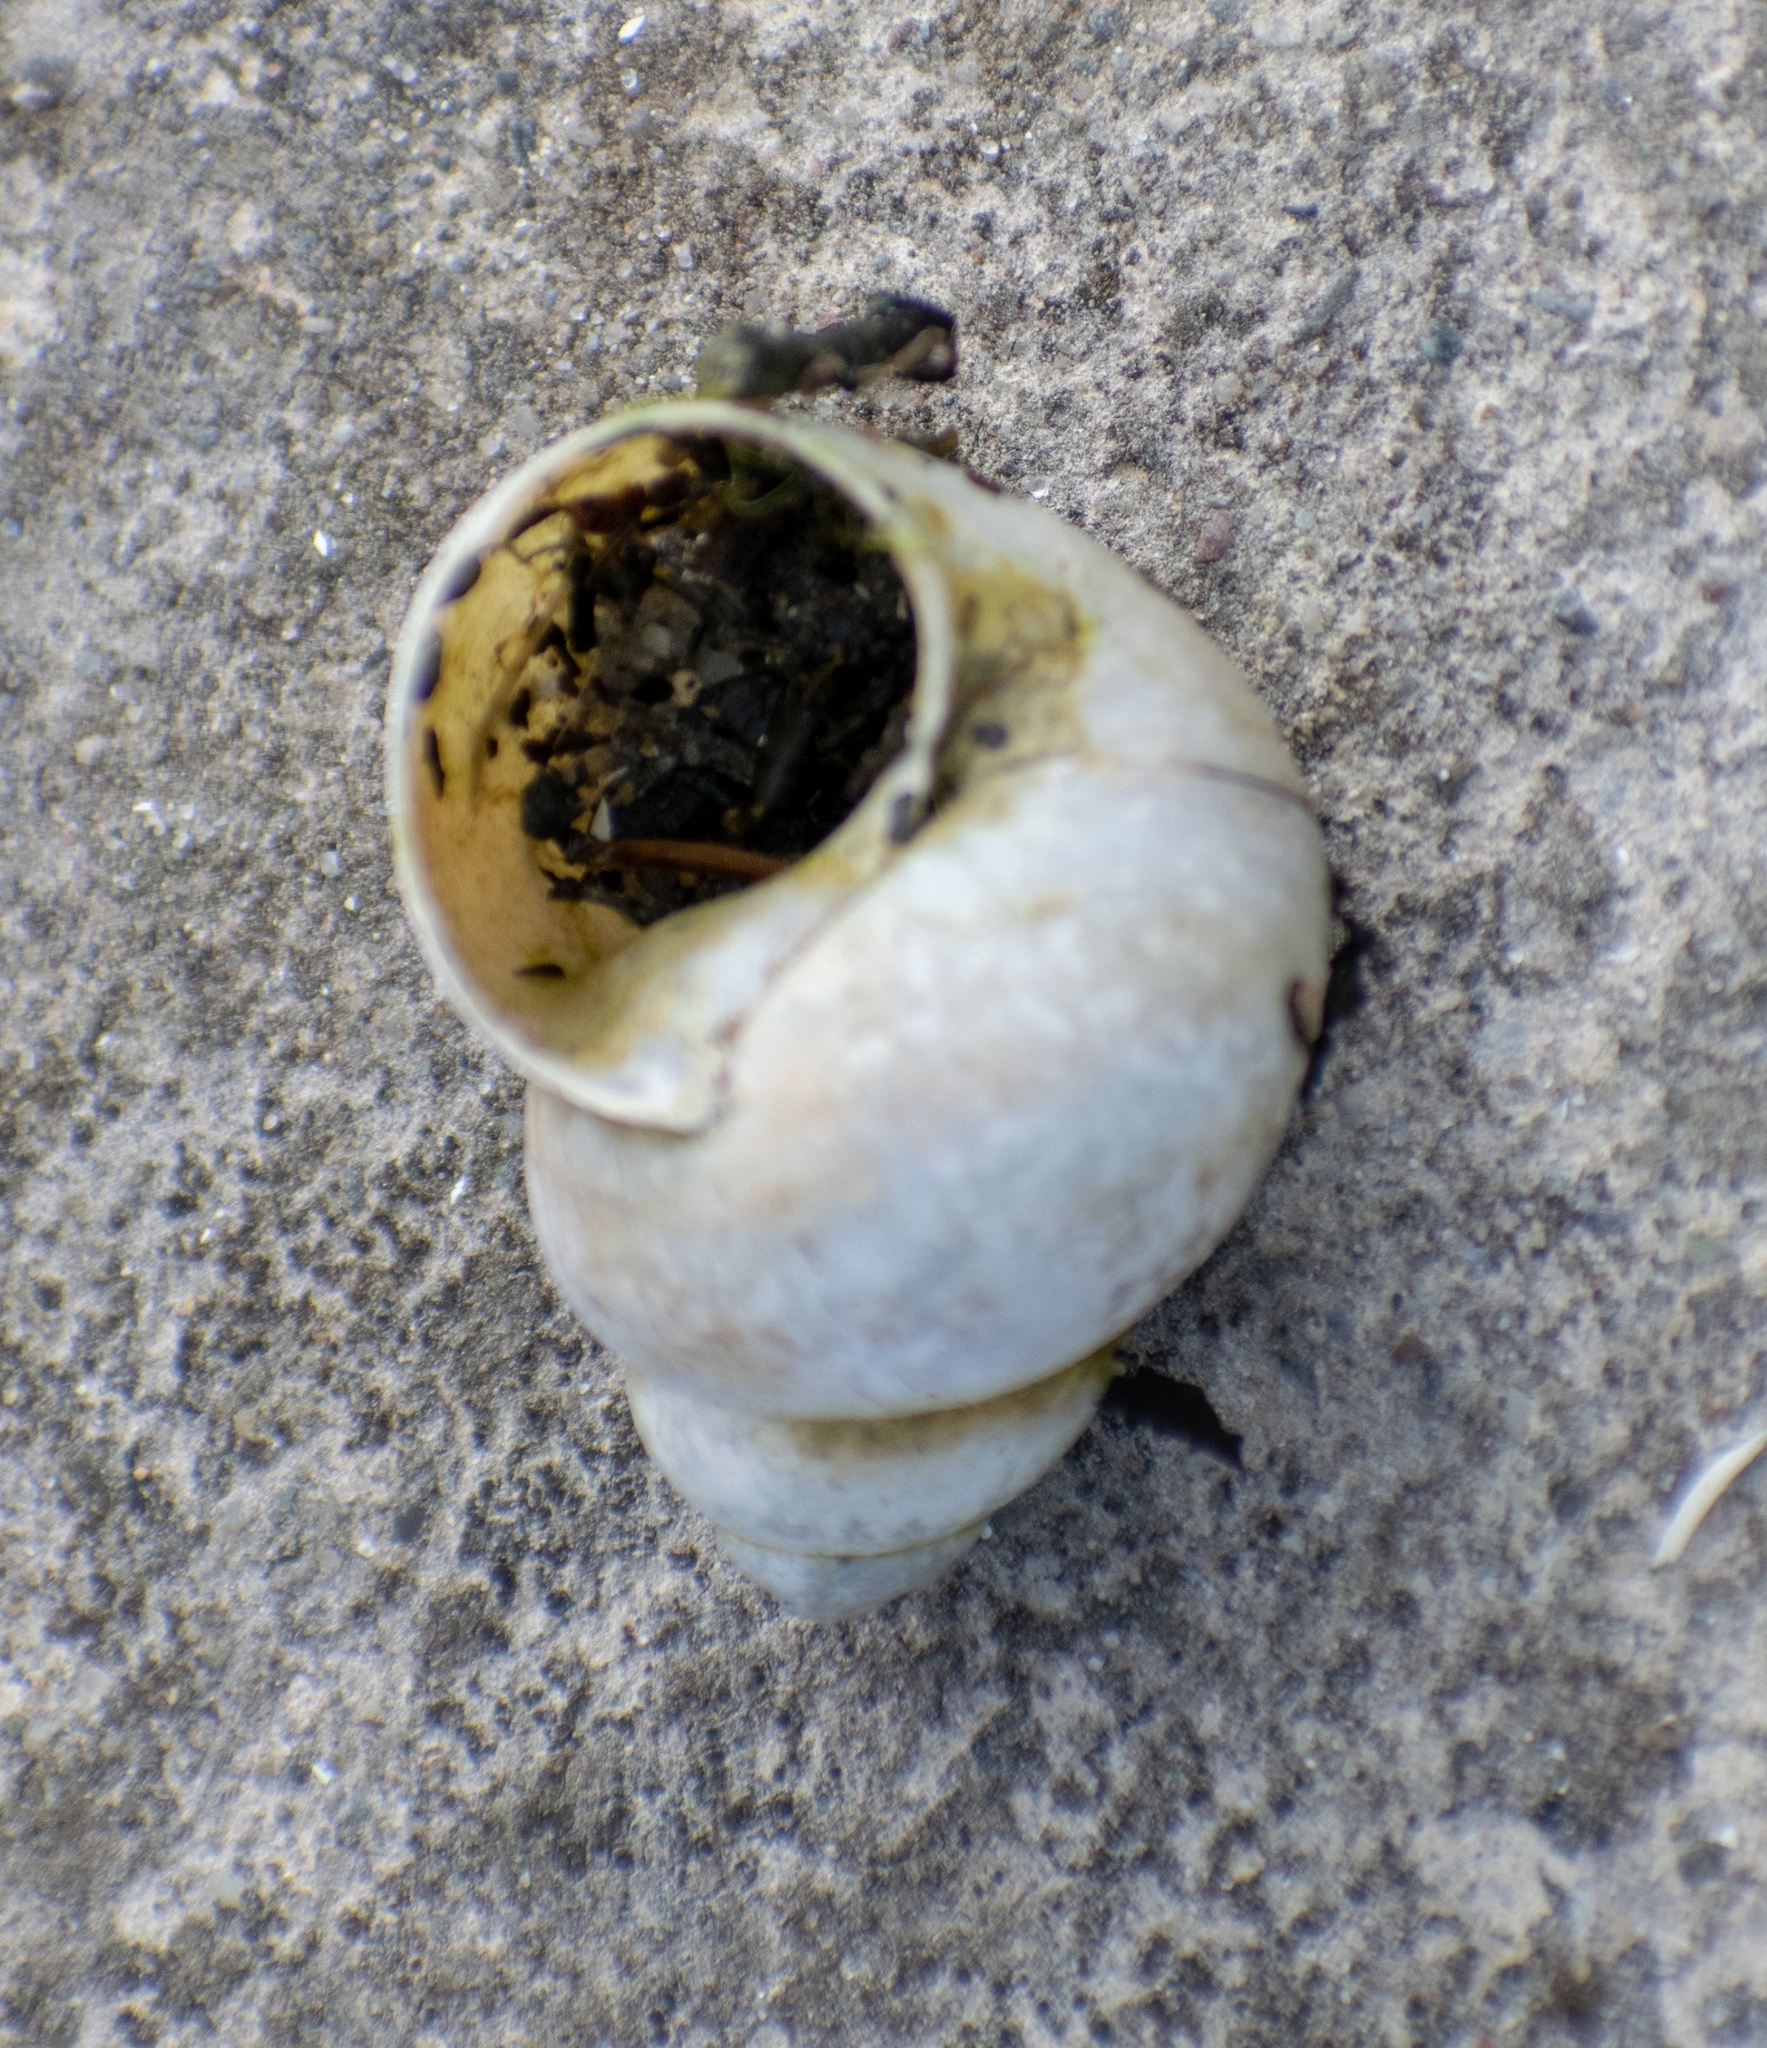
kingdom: Animalia
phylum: Mollusca
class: Gastropoda
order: Architaenioglossa
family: Viviparidae
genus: Viviparus
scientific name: Viviparus ater
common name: Italian river snail
